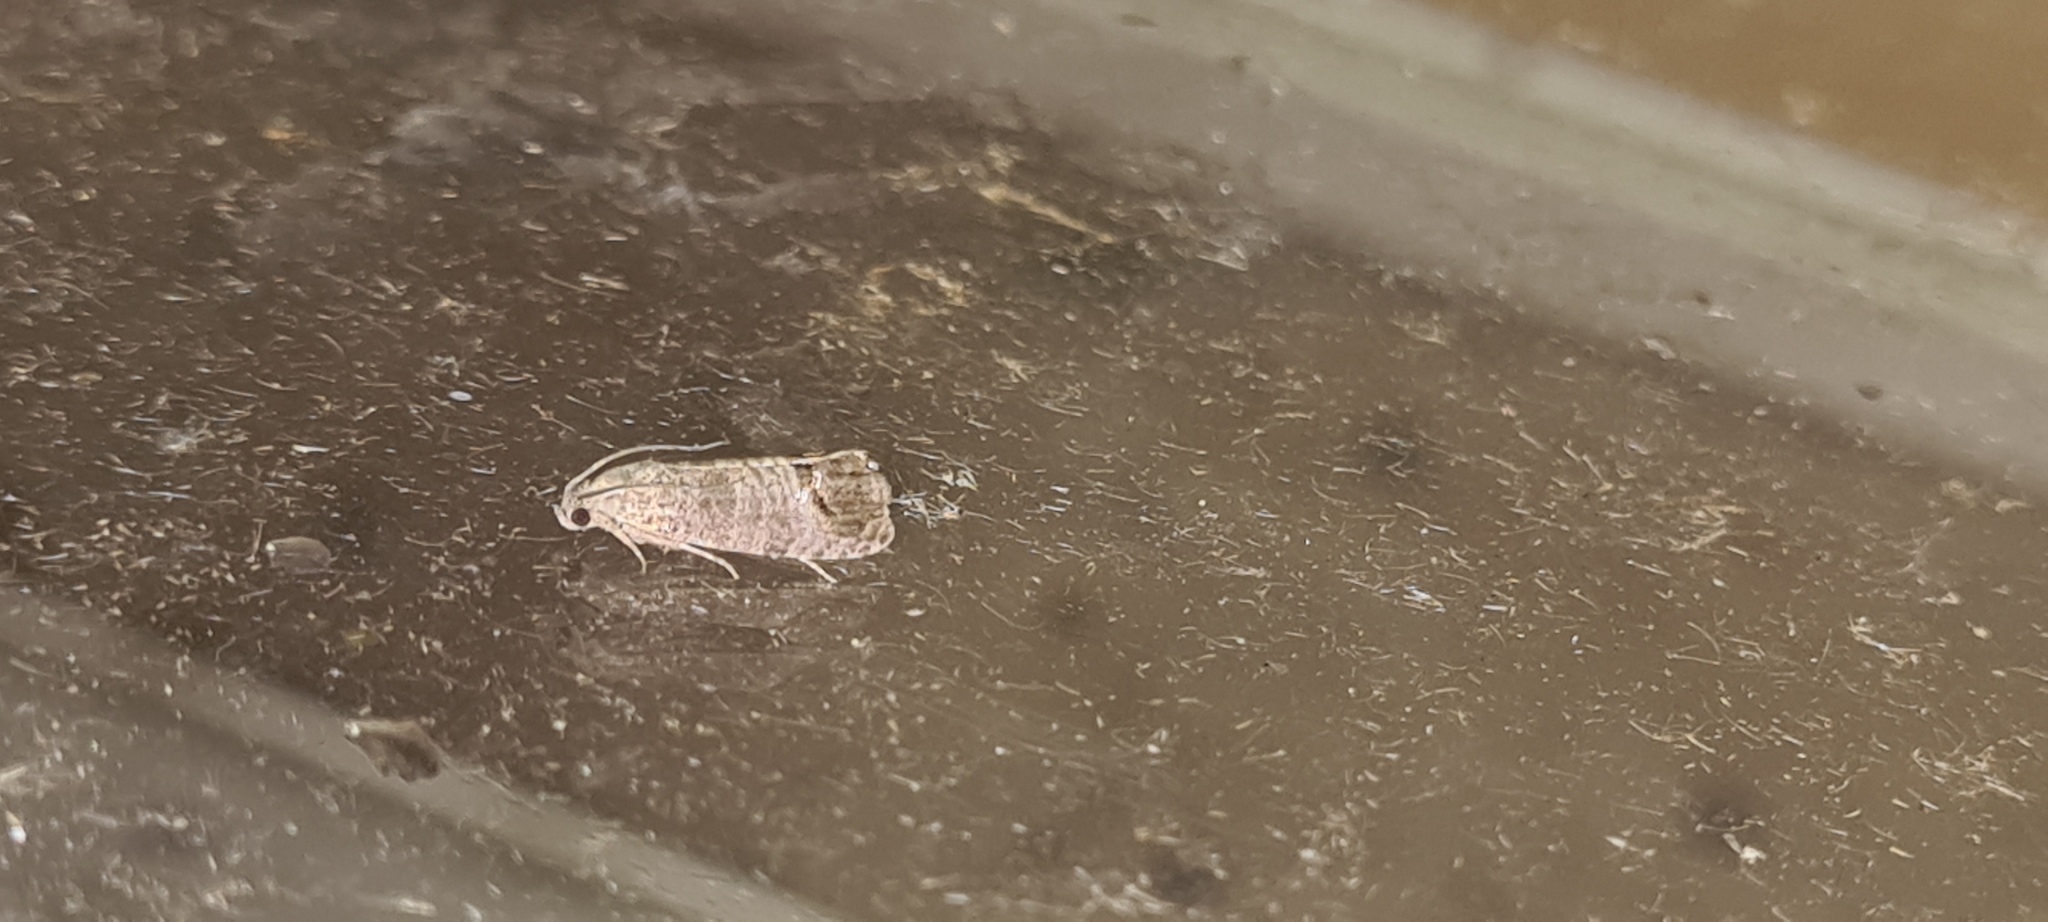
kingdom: Animalia
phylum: Arthropoda
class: Insecta
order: Lepidoptera
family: Tortricidae
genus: Cydia
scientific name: Cydia pomonella
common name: Codling moth
